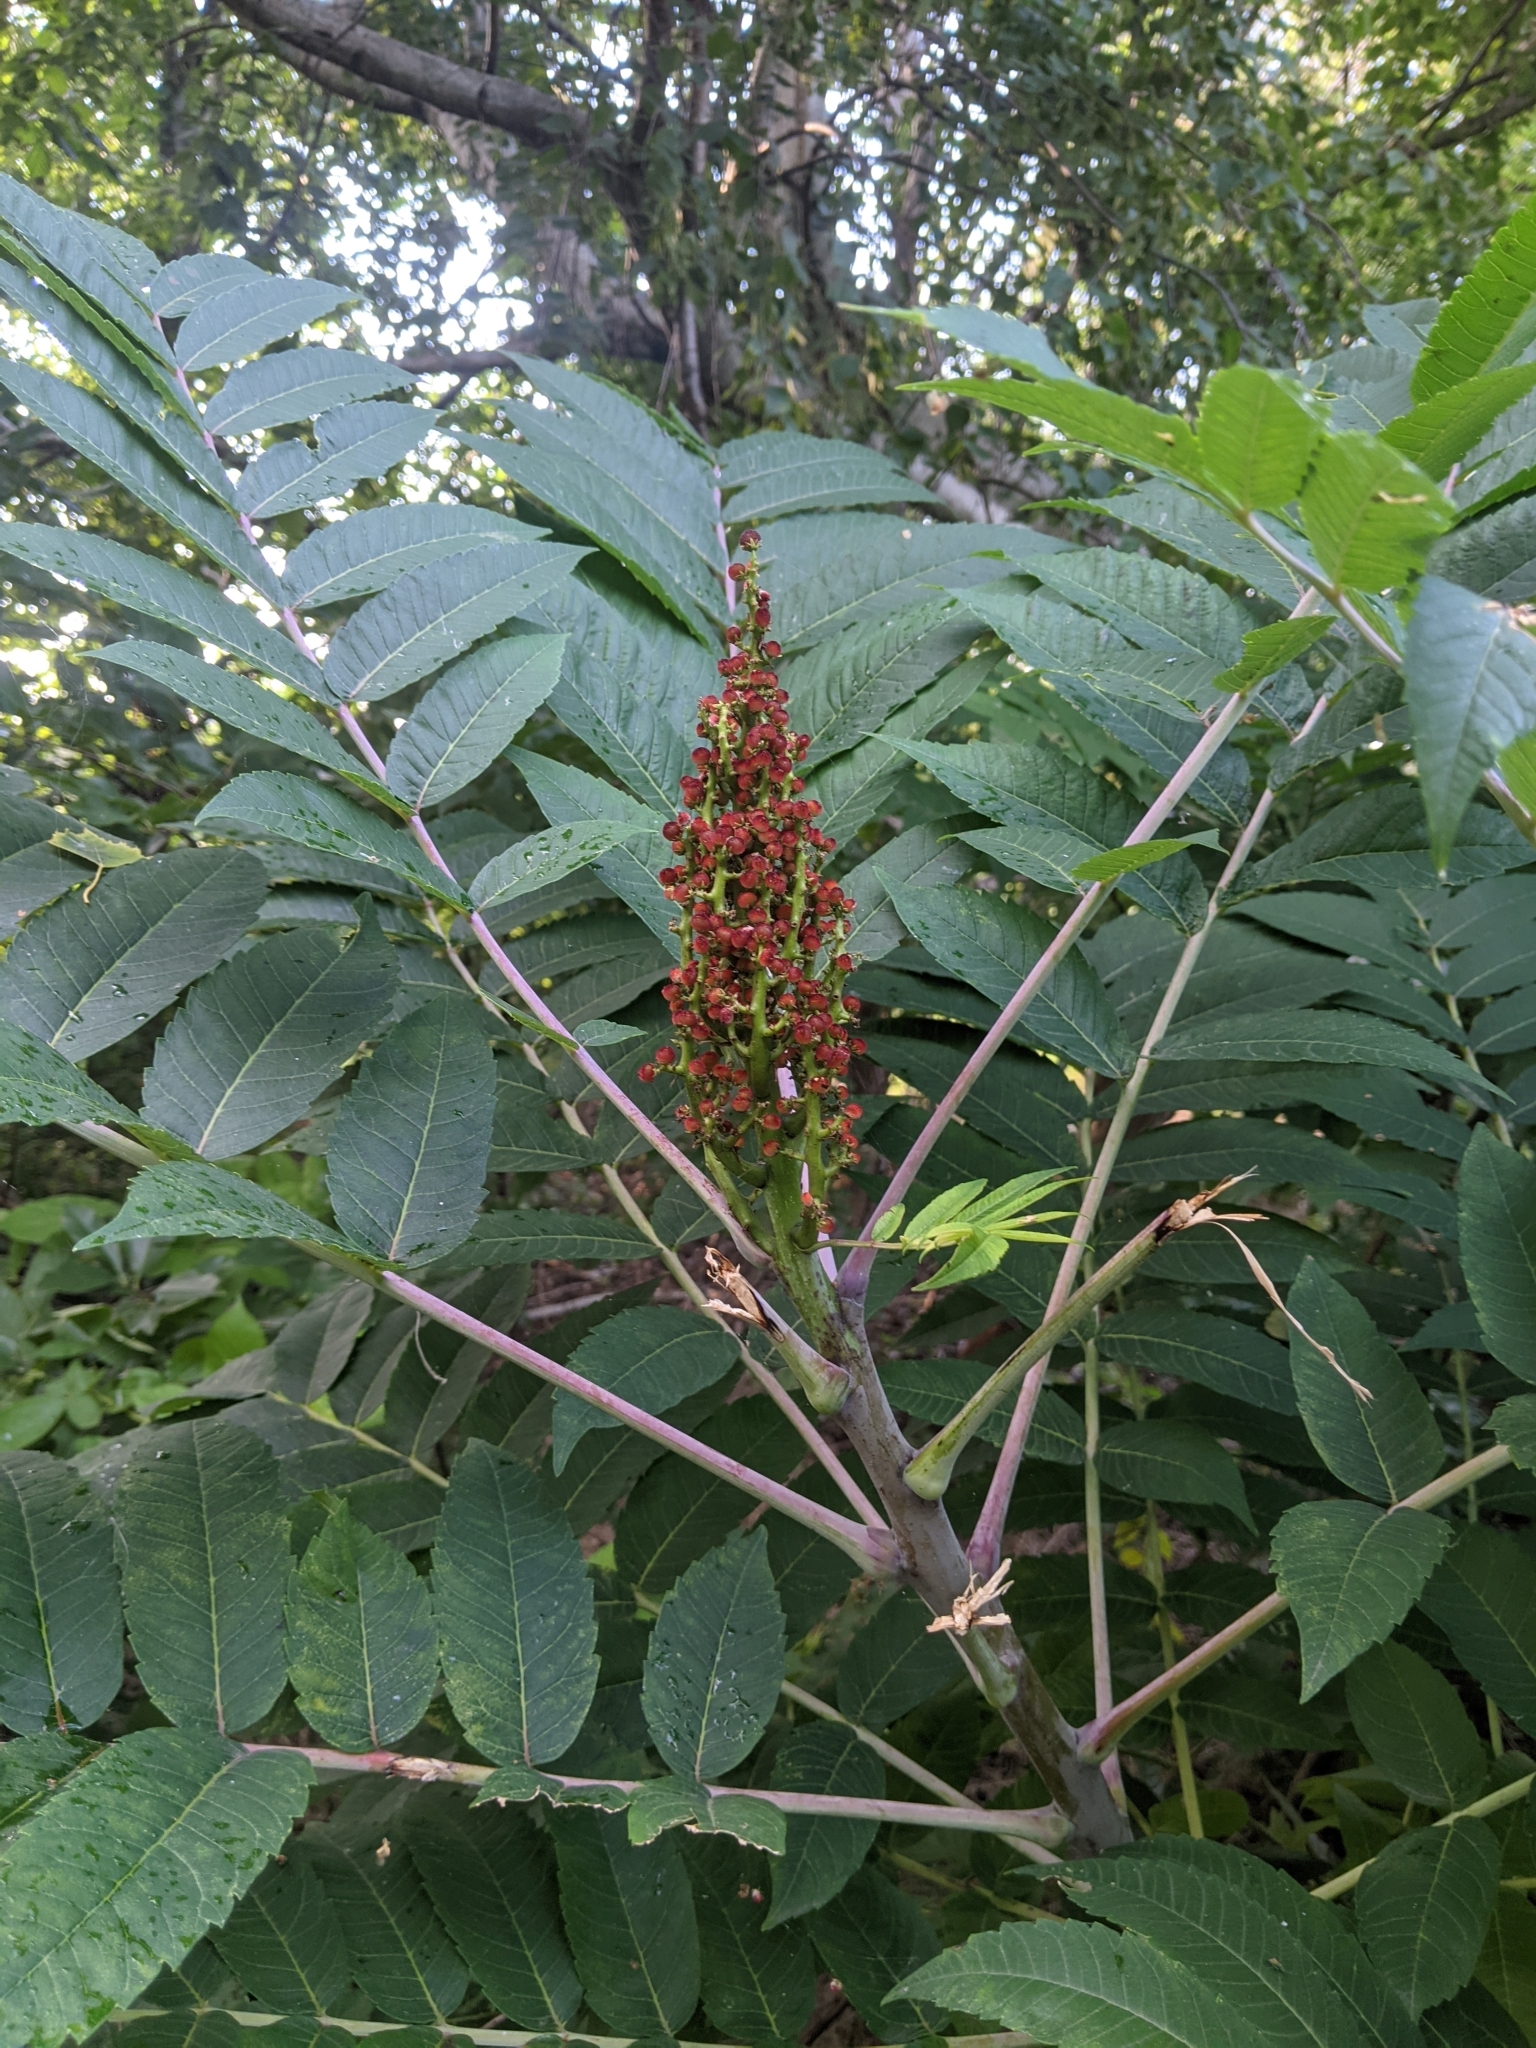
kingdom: Plantae
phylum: Tracheophyta
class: Magnoliopsida
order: Sapindales
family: Anacardiaceae
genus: Rhus
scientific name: Rhus glabra
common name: Scarlet sumac
